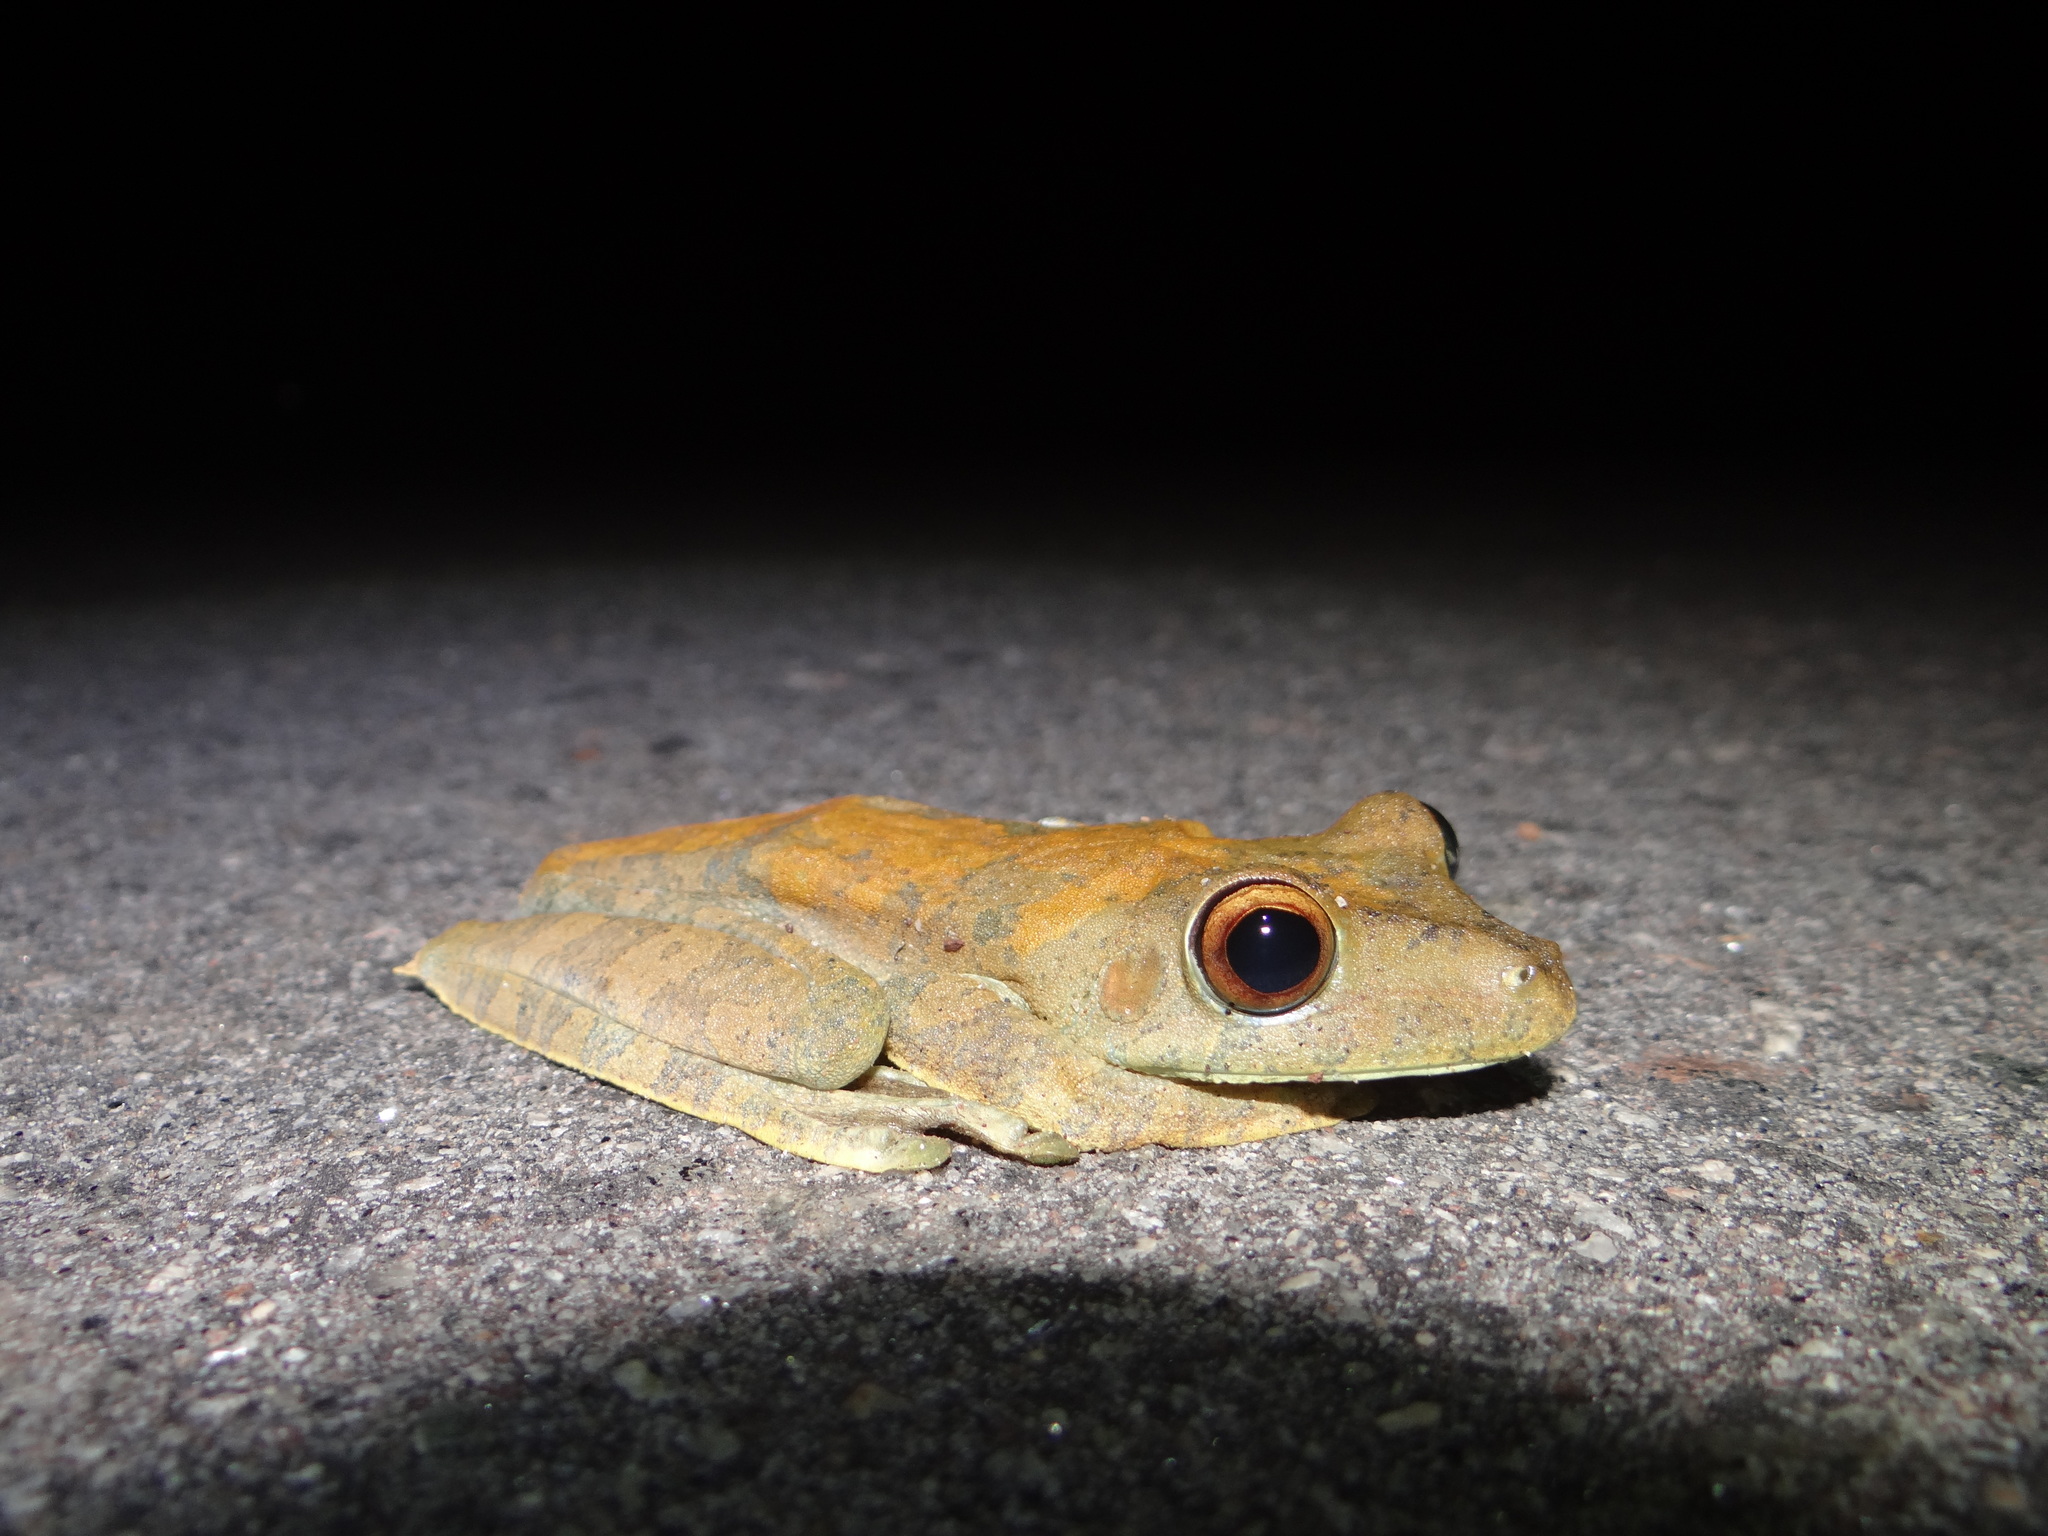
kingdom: Animalia
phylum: Chordata
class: Amphibia
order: Anura
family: Hylidae
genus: Boana
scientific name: Boana boans
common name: Giant gladiator treefrog
